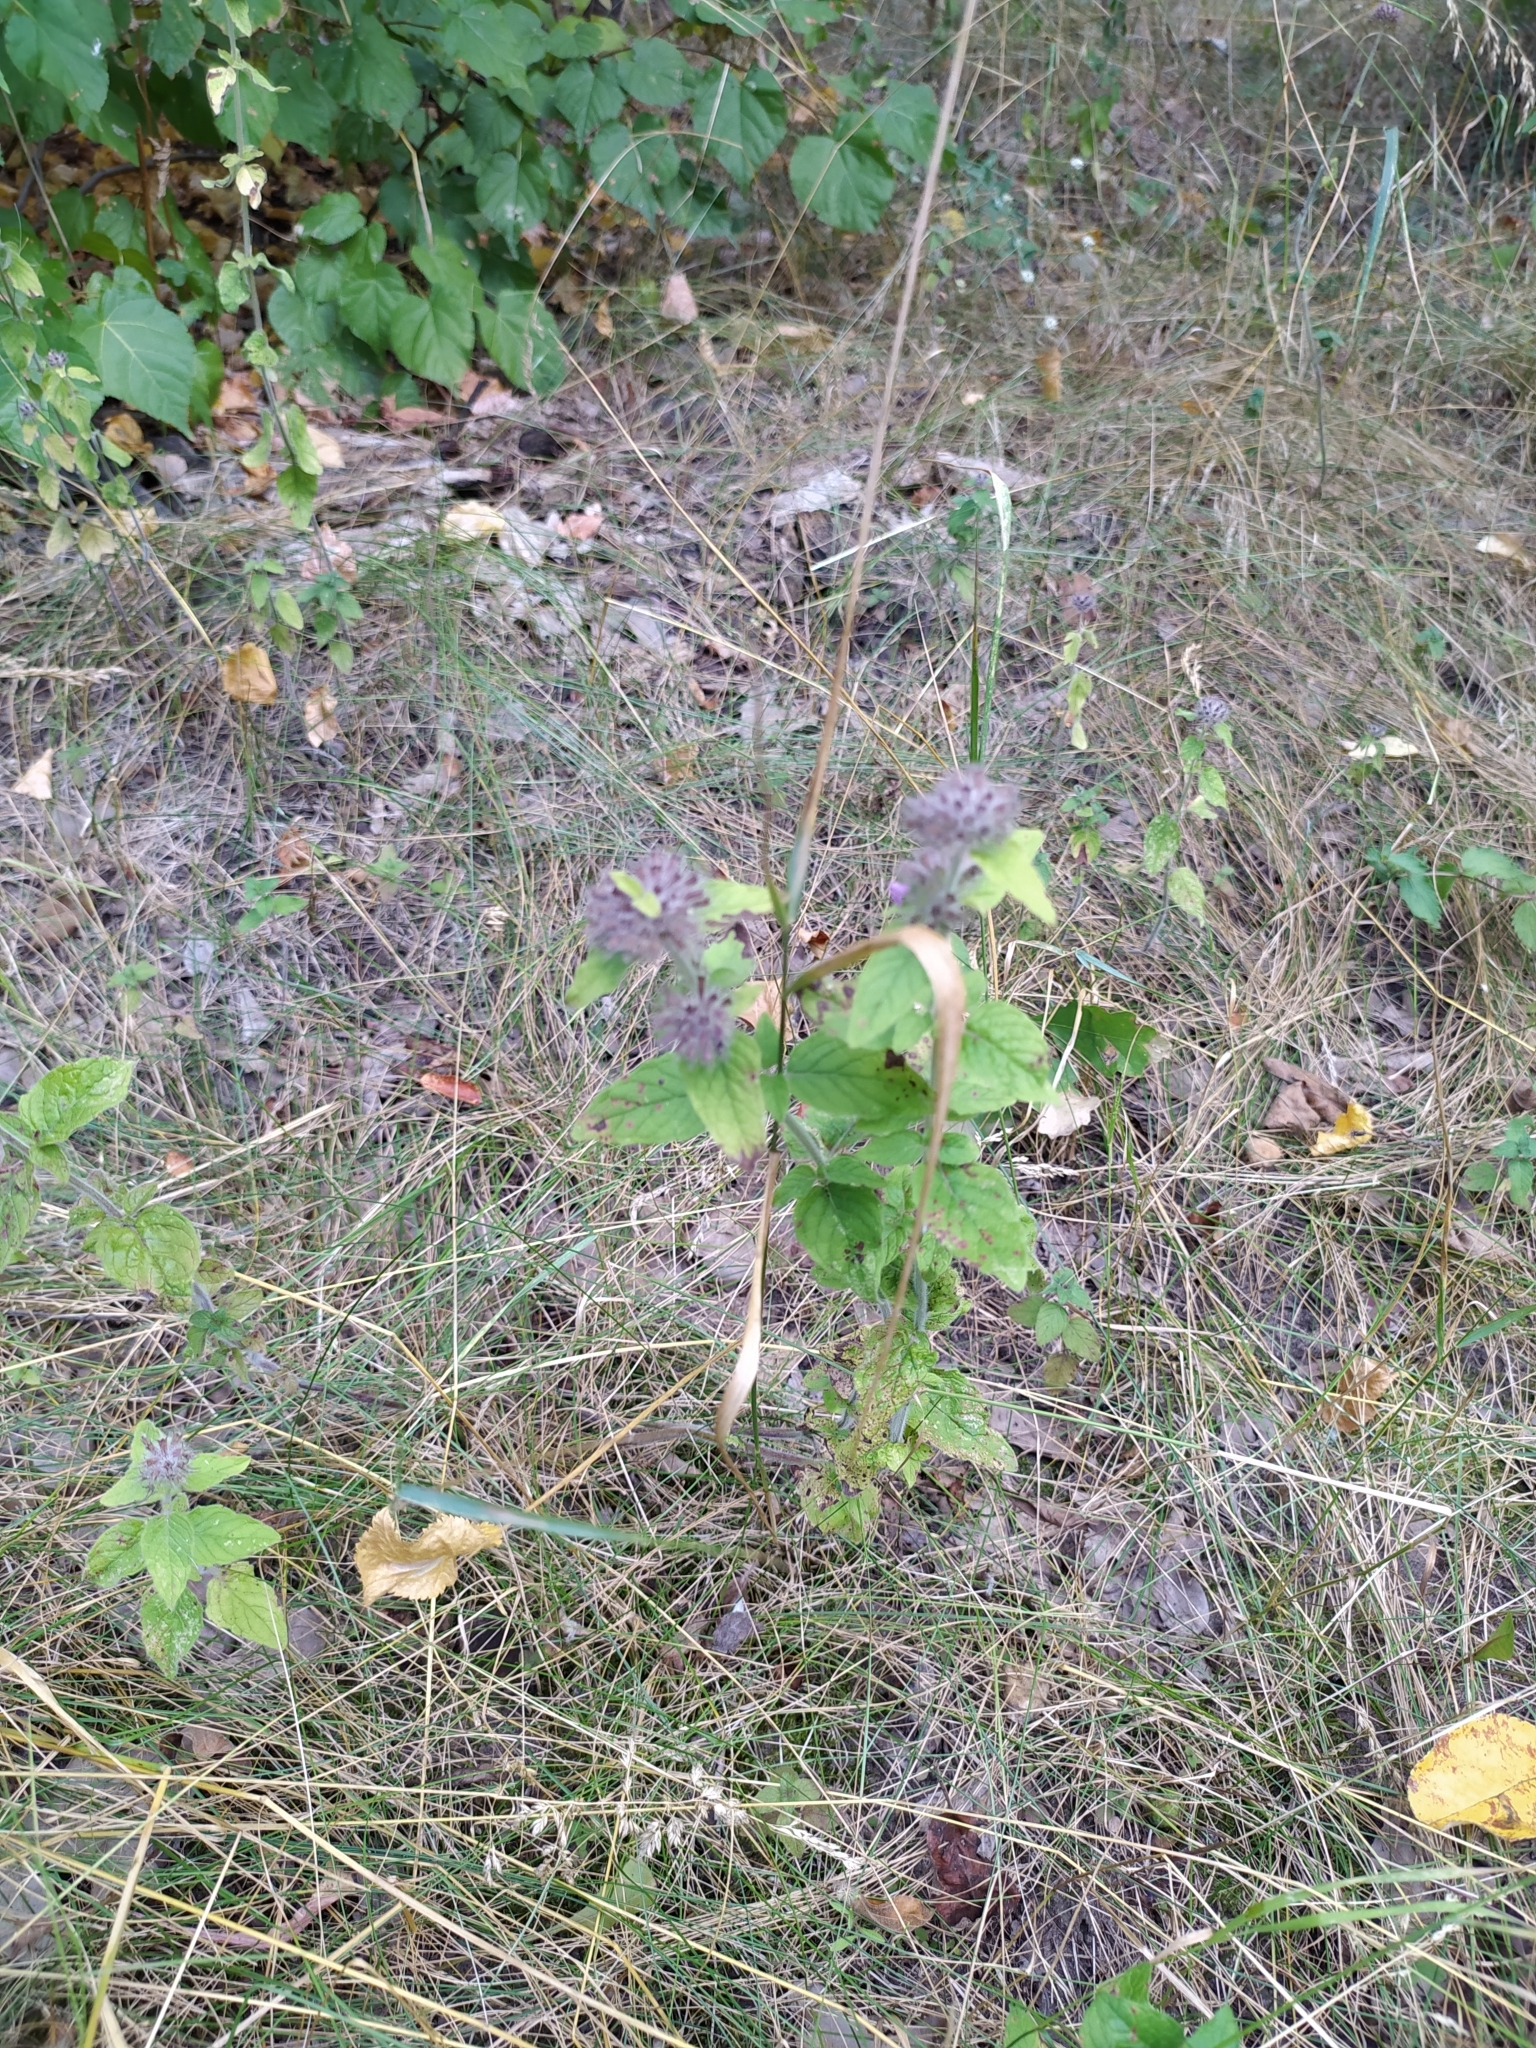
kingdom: Plantae
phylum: Tracheophyta
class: Magnoliopsida
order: Lamiales
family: Lamiaceae
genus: Clinopodium
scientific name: Clinopodium vulgare
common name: Wild basil
